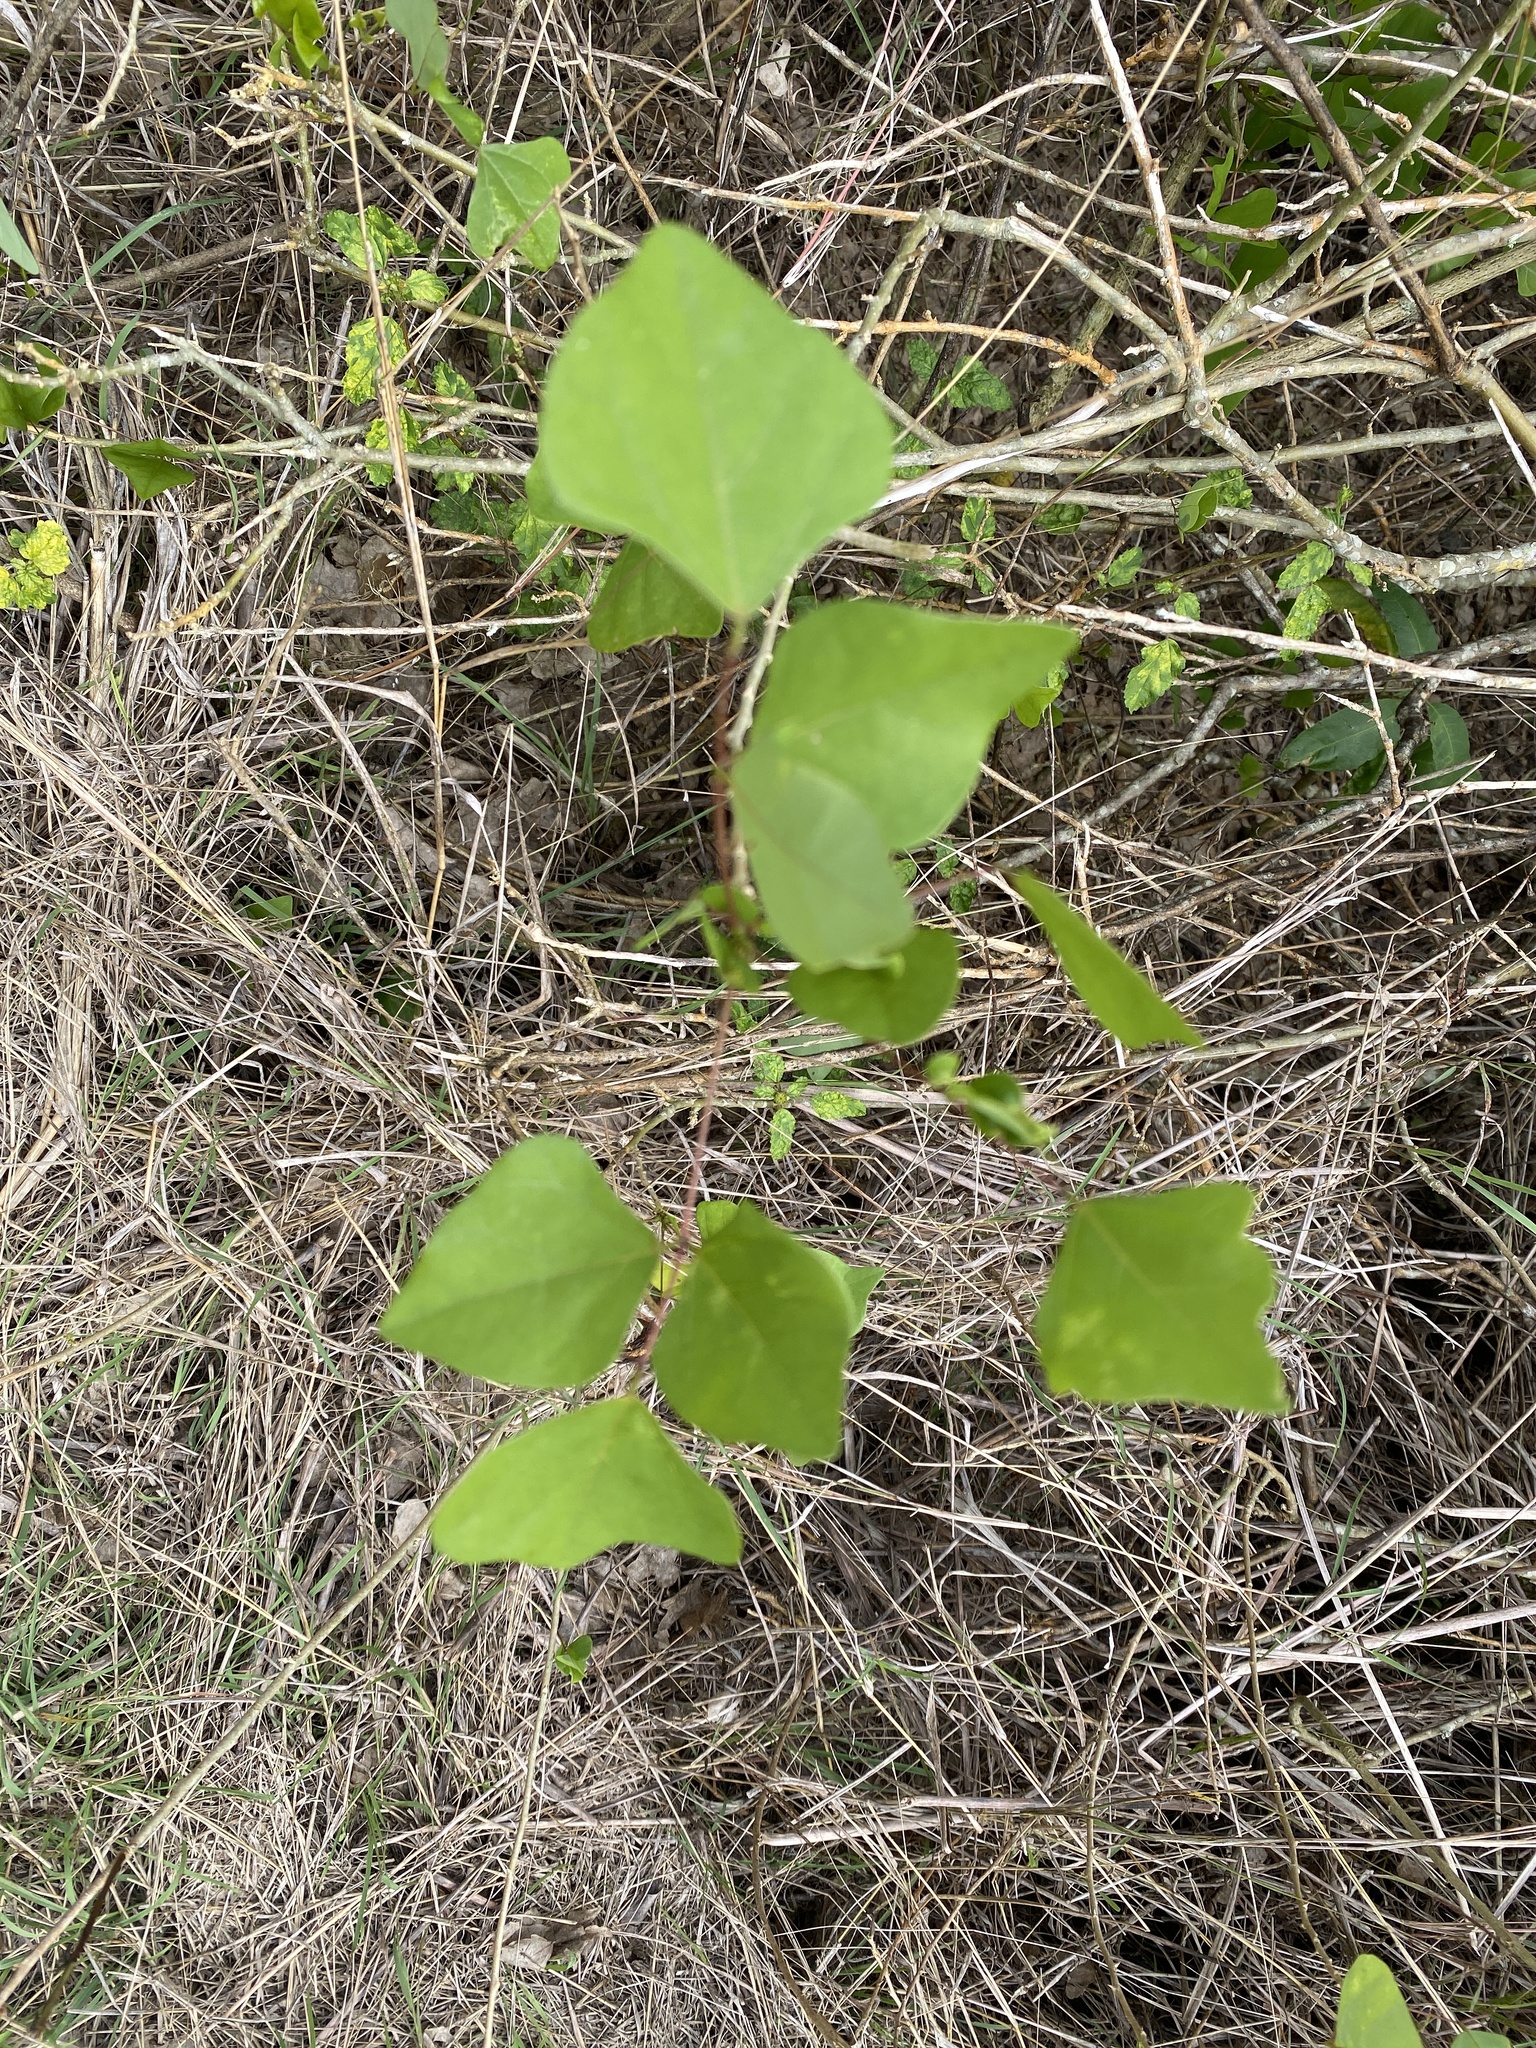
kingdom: Plantae
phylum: Tracheophyta
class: Magnoliopsida
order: Fabales
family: Fabaceae
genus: Erythrina
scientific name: Erythrina herbacea
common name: Coral-bean
